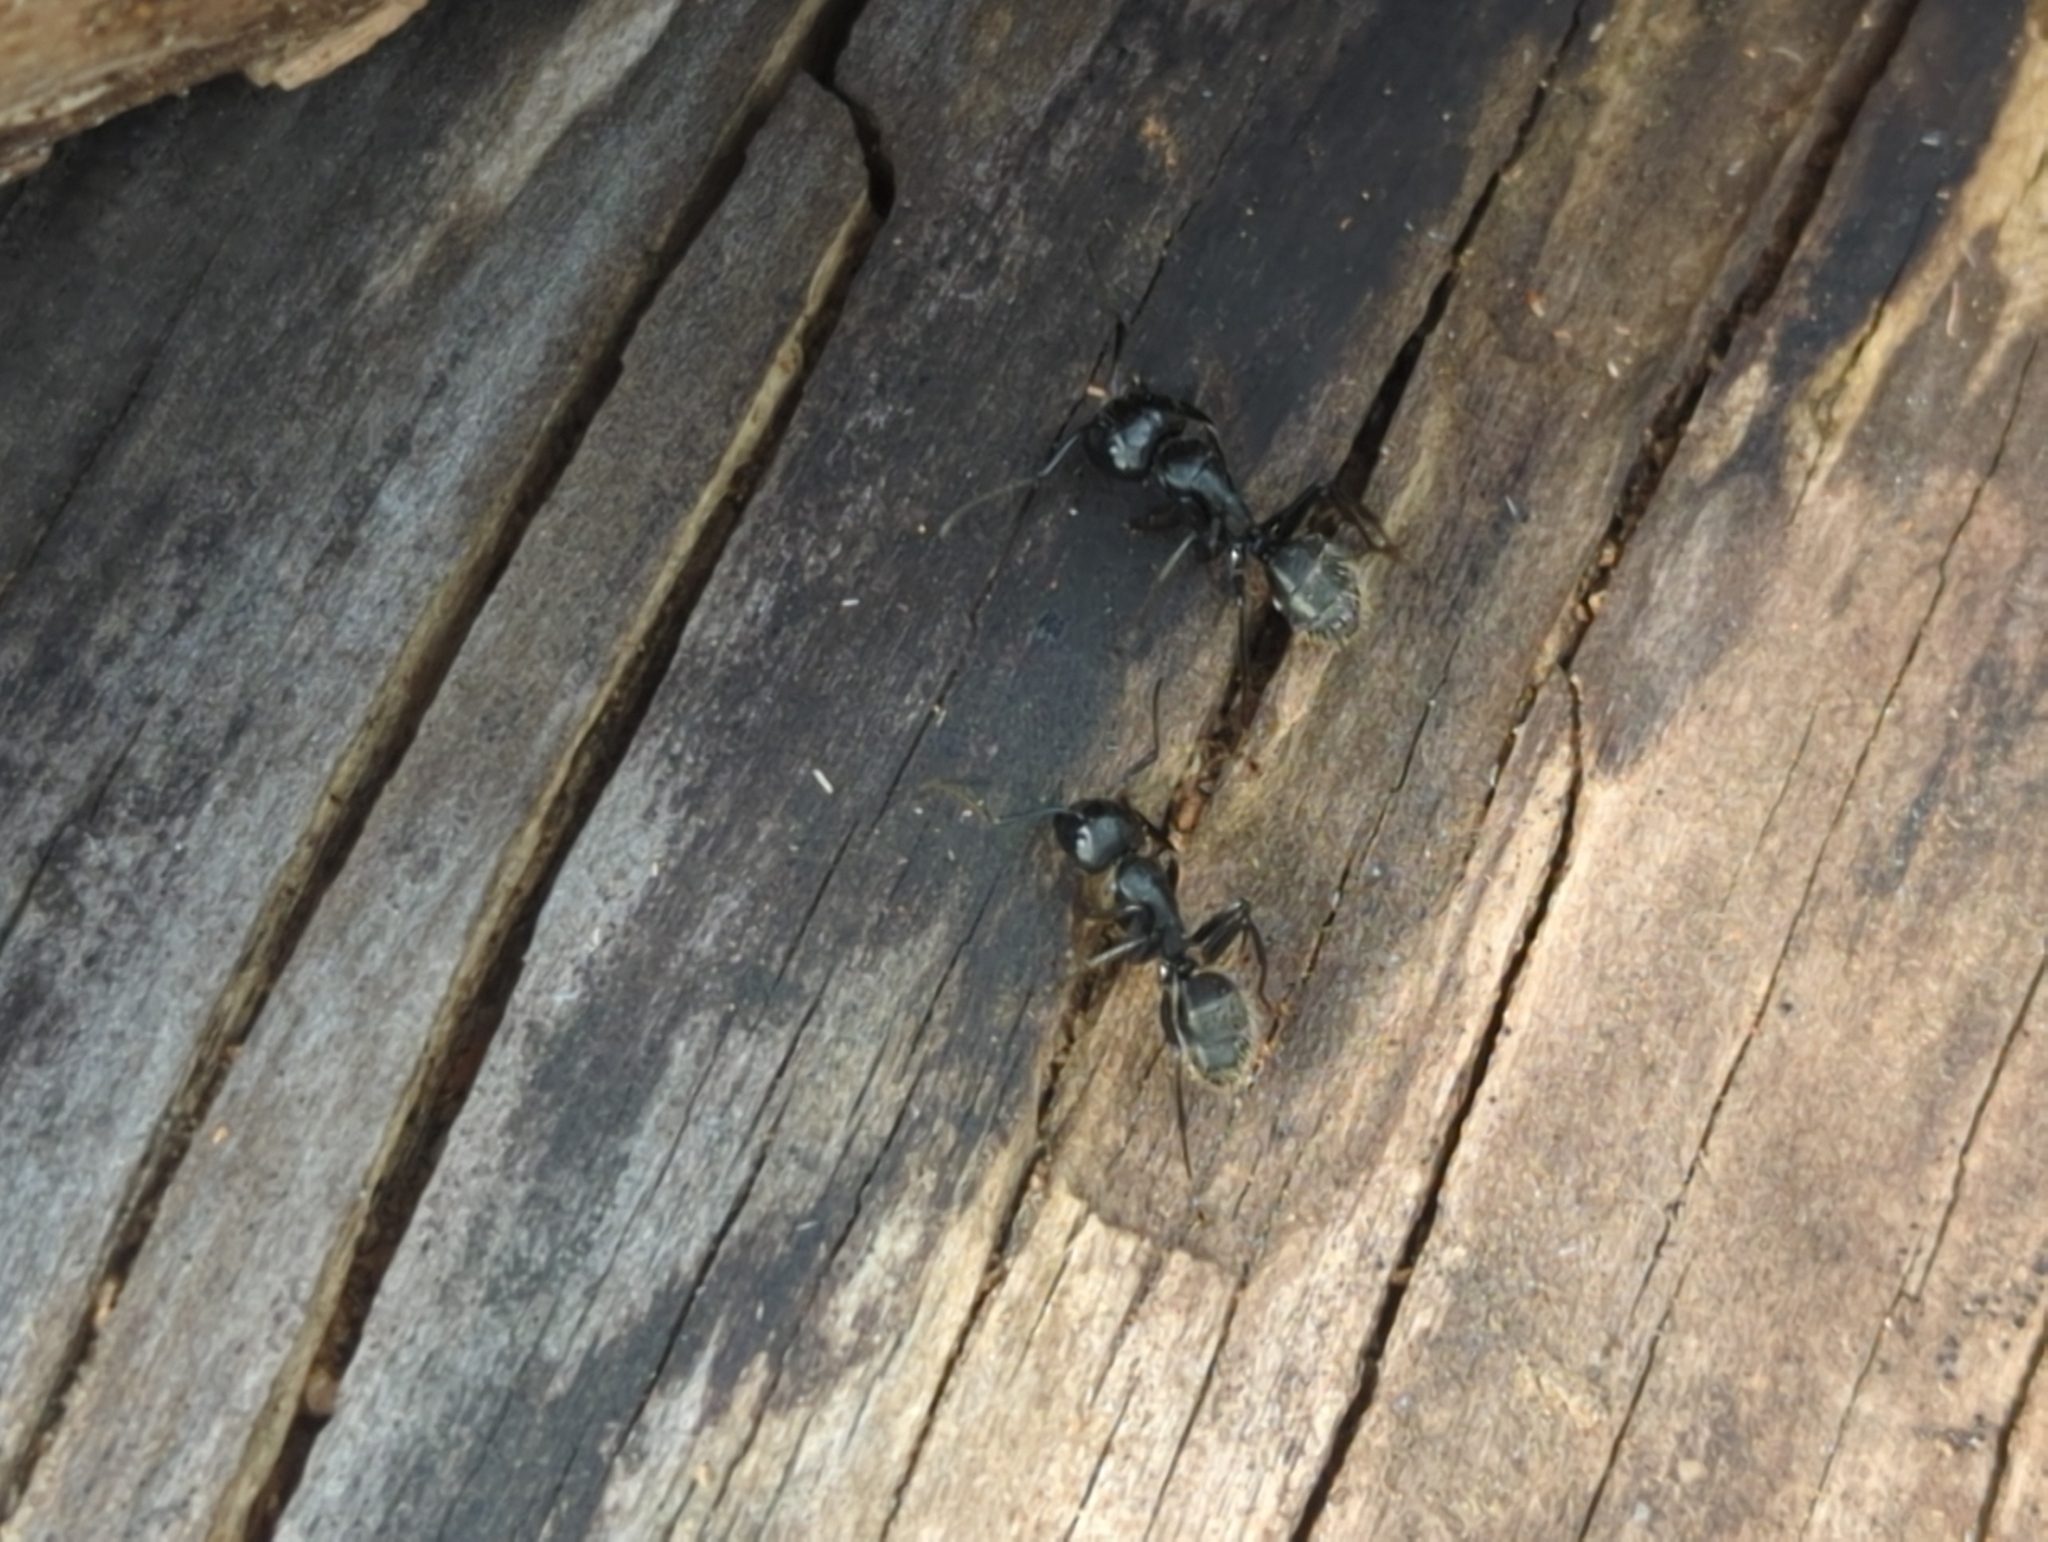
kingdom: Animalia
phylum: Arthropoda
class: Insecta
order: Hymenoptera
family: Formicidae
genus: Camponotus
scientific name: Camponotus vagus
